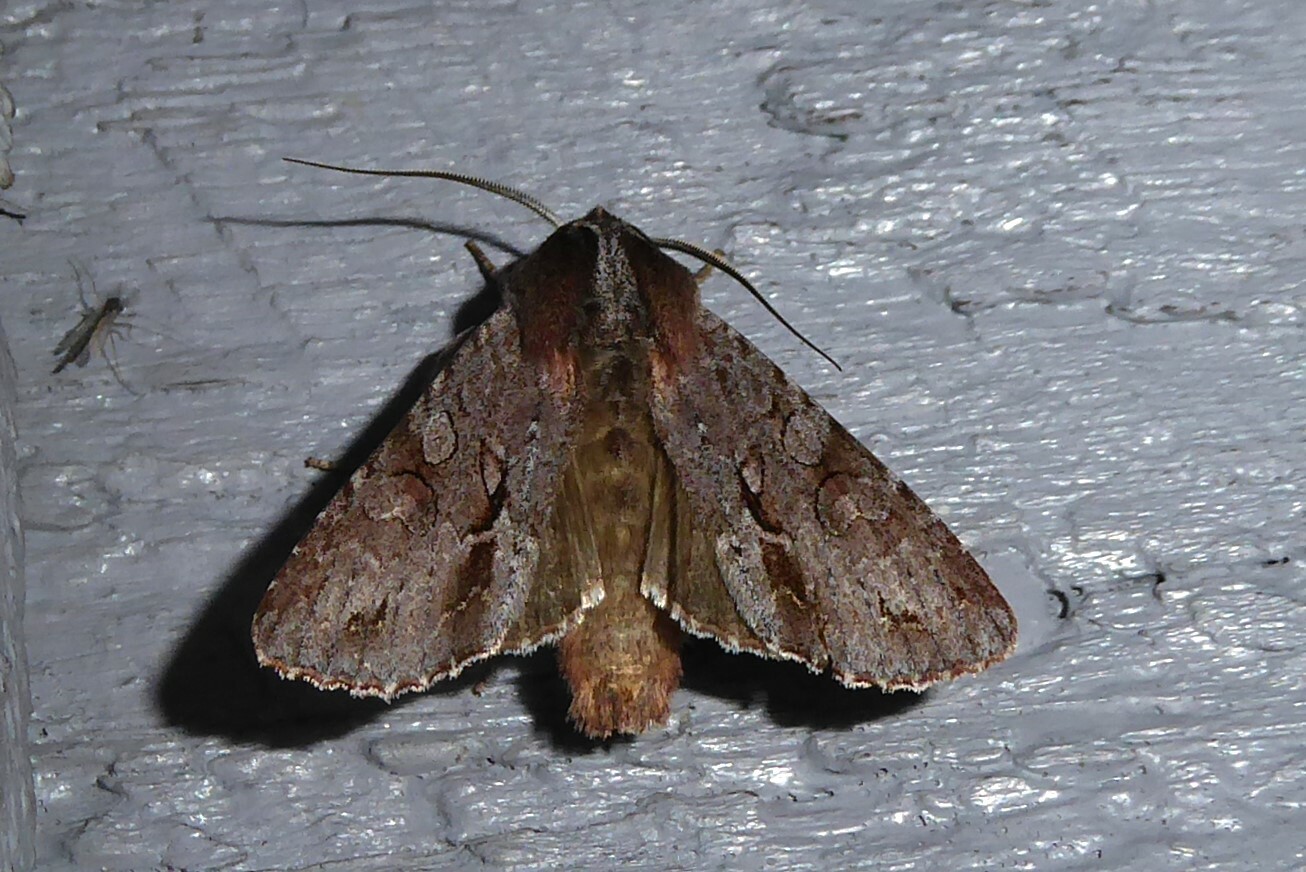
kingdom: Animalia
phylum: Arthropoda
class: Insecta
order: Lepidoptera
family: Noctuidae
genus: Ichneutica
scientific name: Ichneutica
